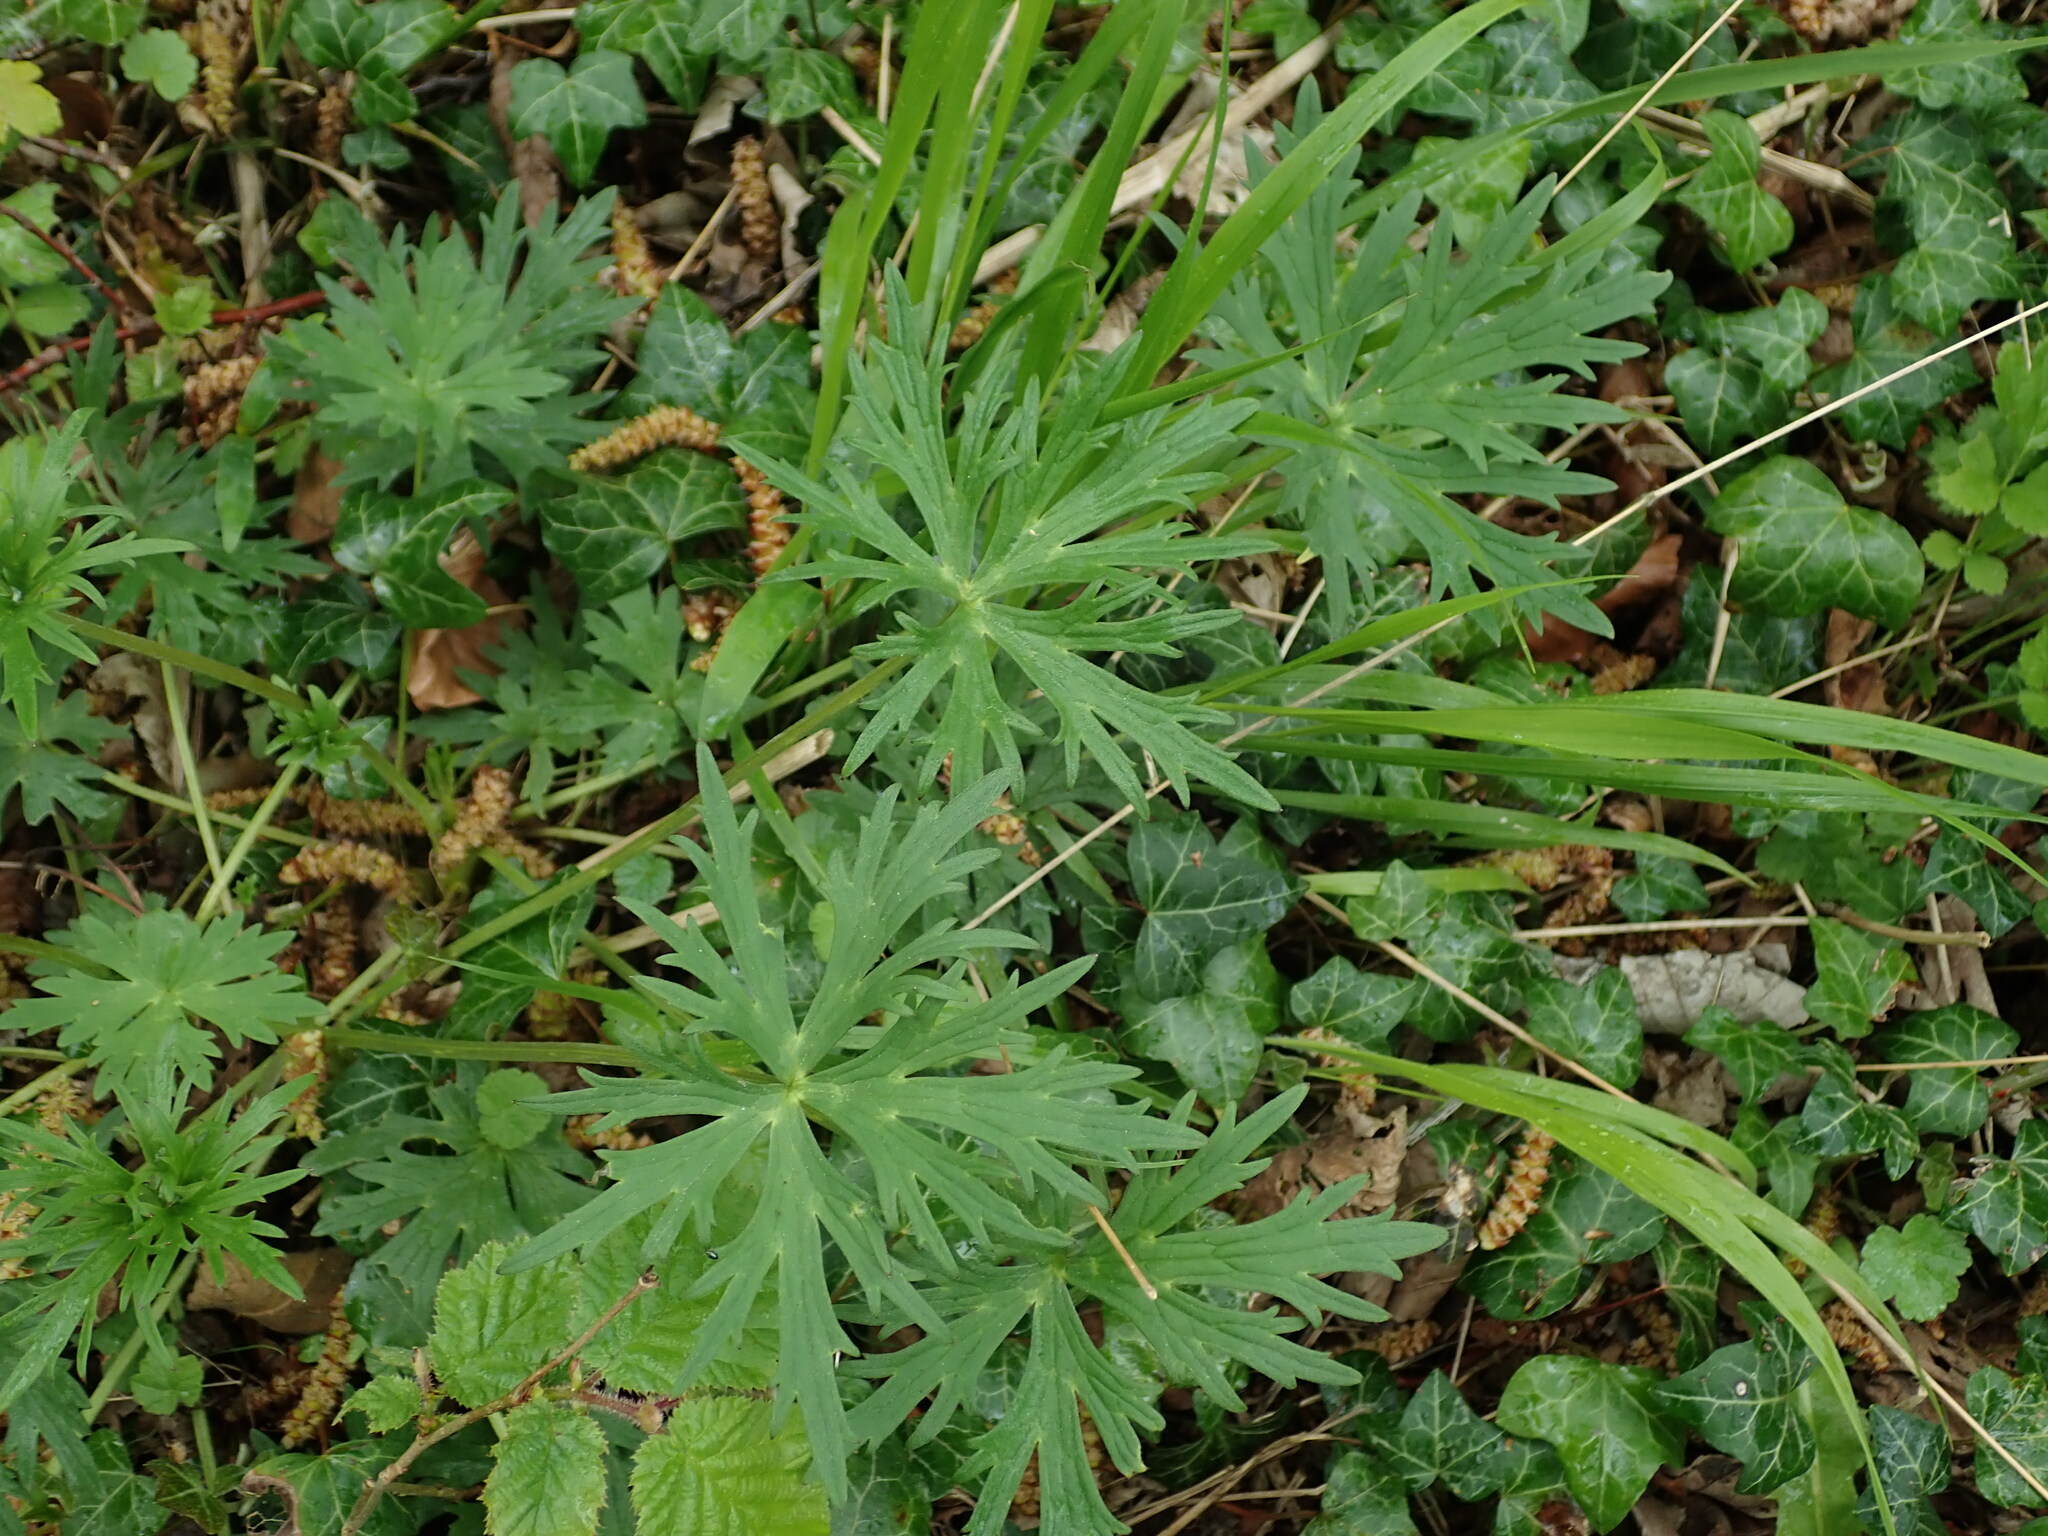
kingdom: Plantae
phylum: Tracheophyta
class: Magnoliopsida
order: Ranunculales
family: Ranunculaceae
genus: Ranunculus
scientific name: Ranunculus acris
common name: Meadow buttercup
